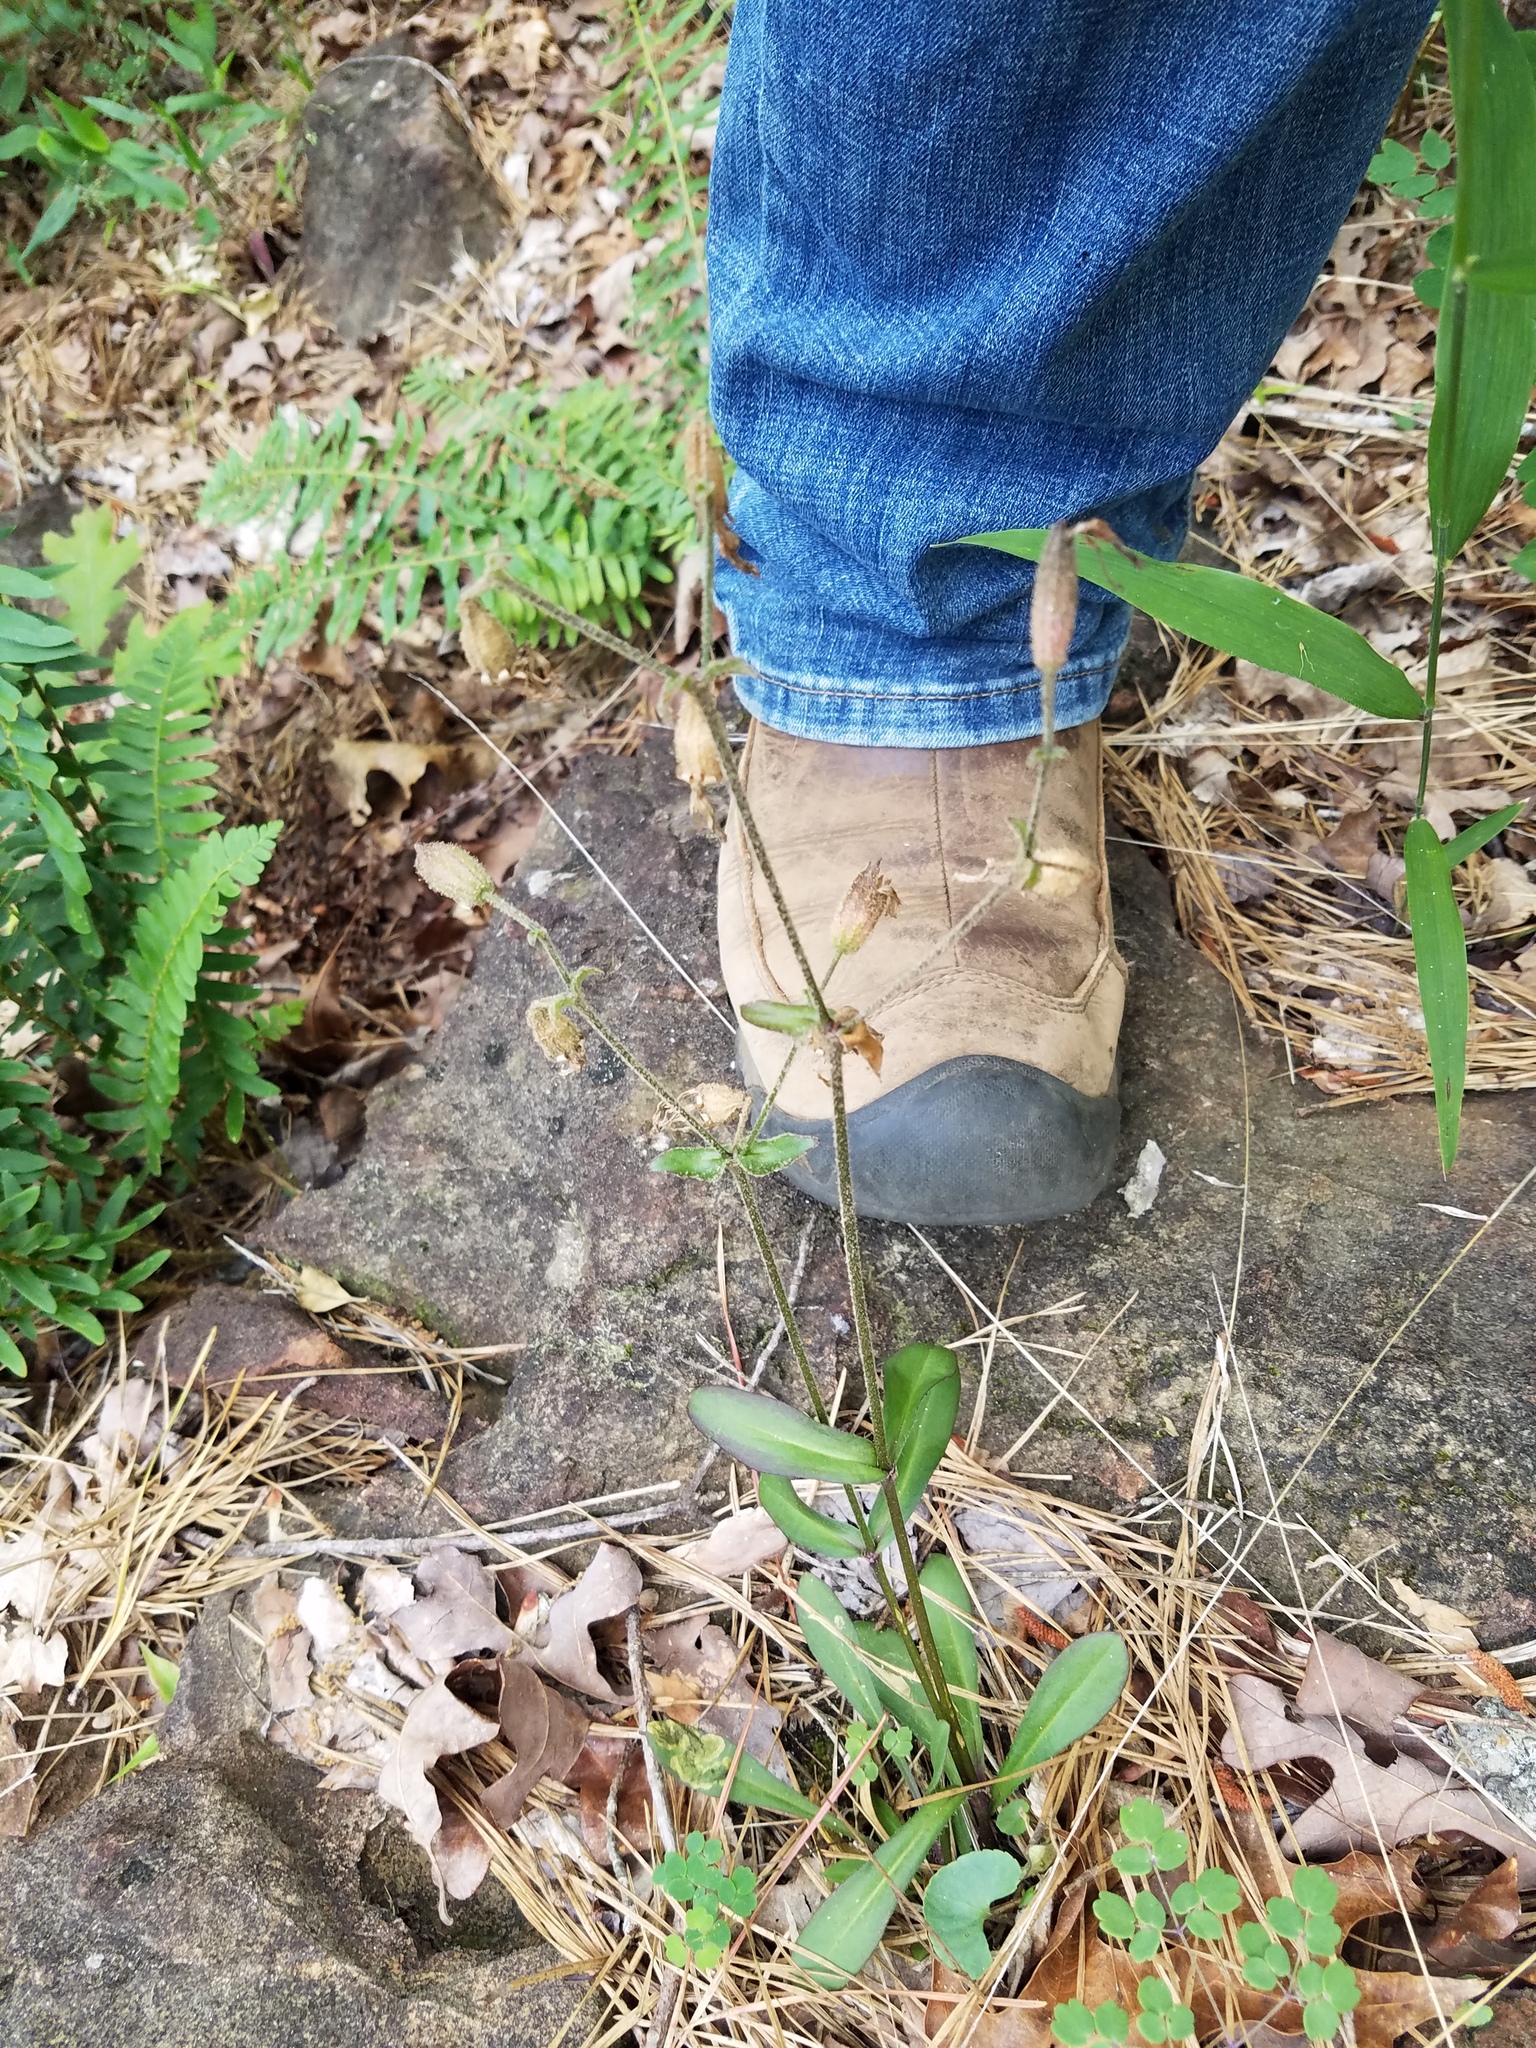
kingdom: Plantae
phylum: Tracheophyta
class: Magnoliopsida
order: Caryophyllales
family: Caryophyllaceae
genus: Silene
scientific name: Silene virginica
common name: Fire-pink
